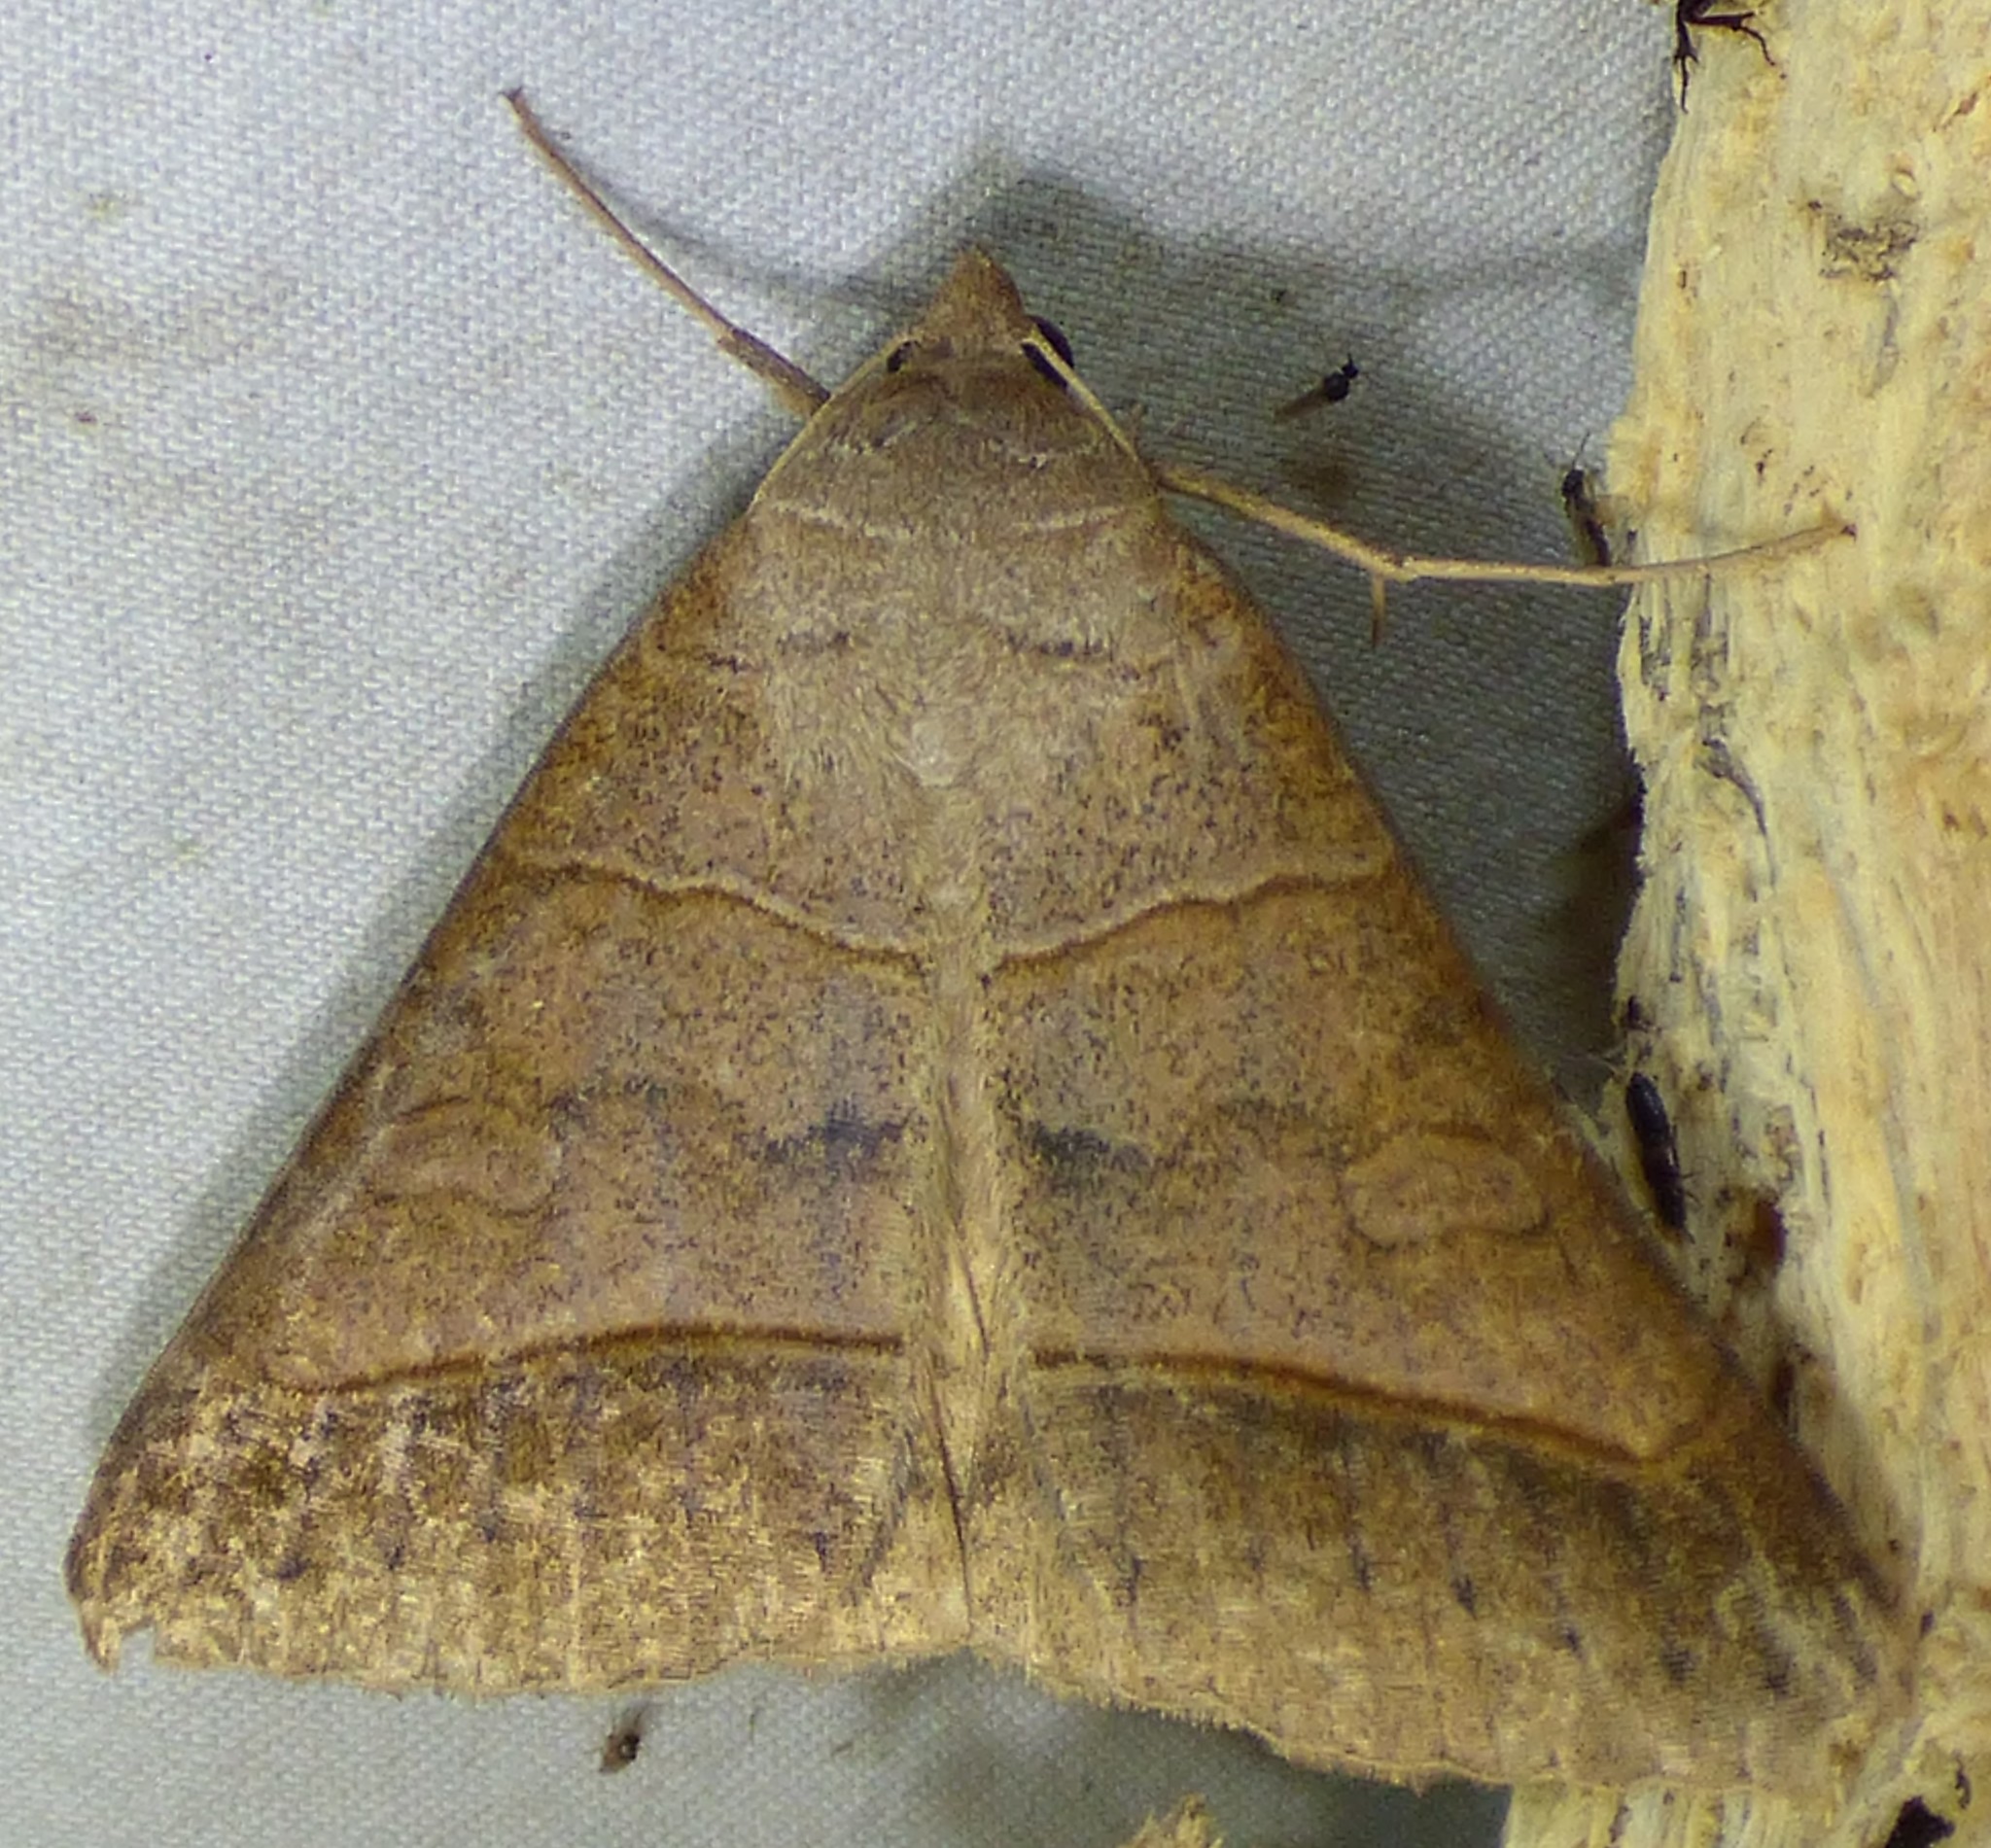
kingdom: Animalia
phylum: Arthropoda
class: Insecta
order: Lepidoptera
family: Erebidae
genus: Mocis
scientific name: Mocis texana
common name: Texas mocis moth
